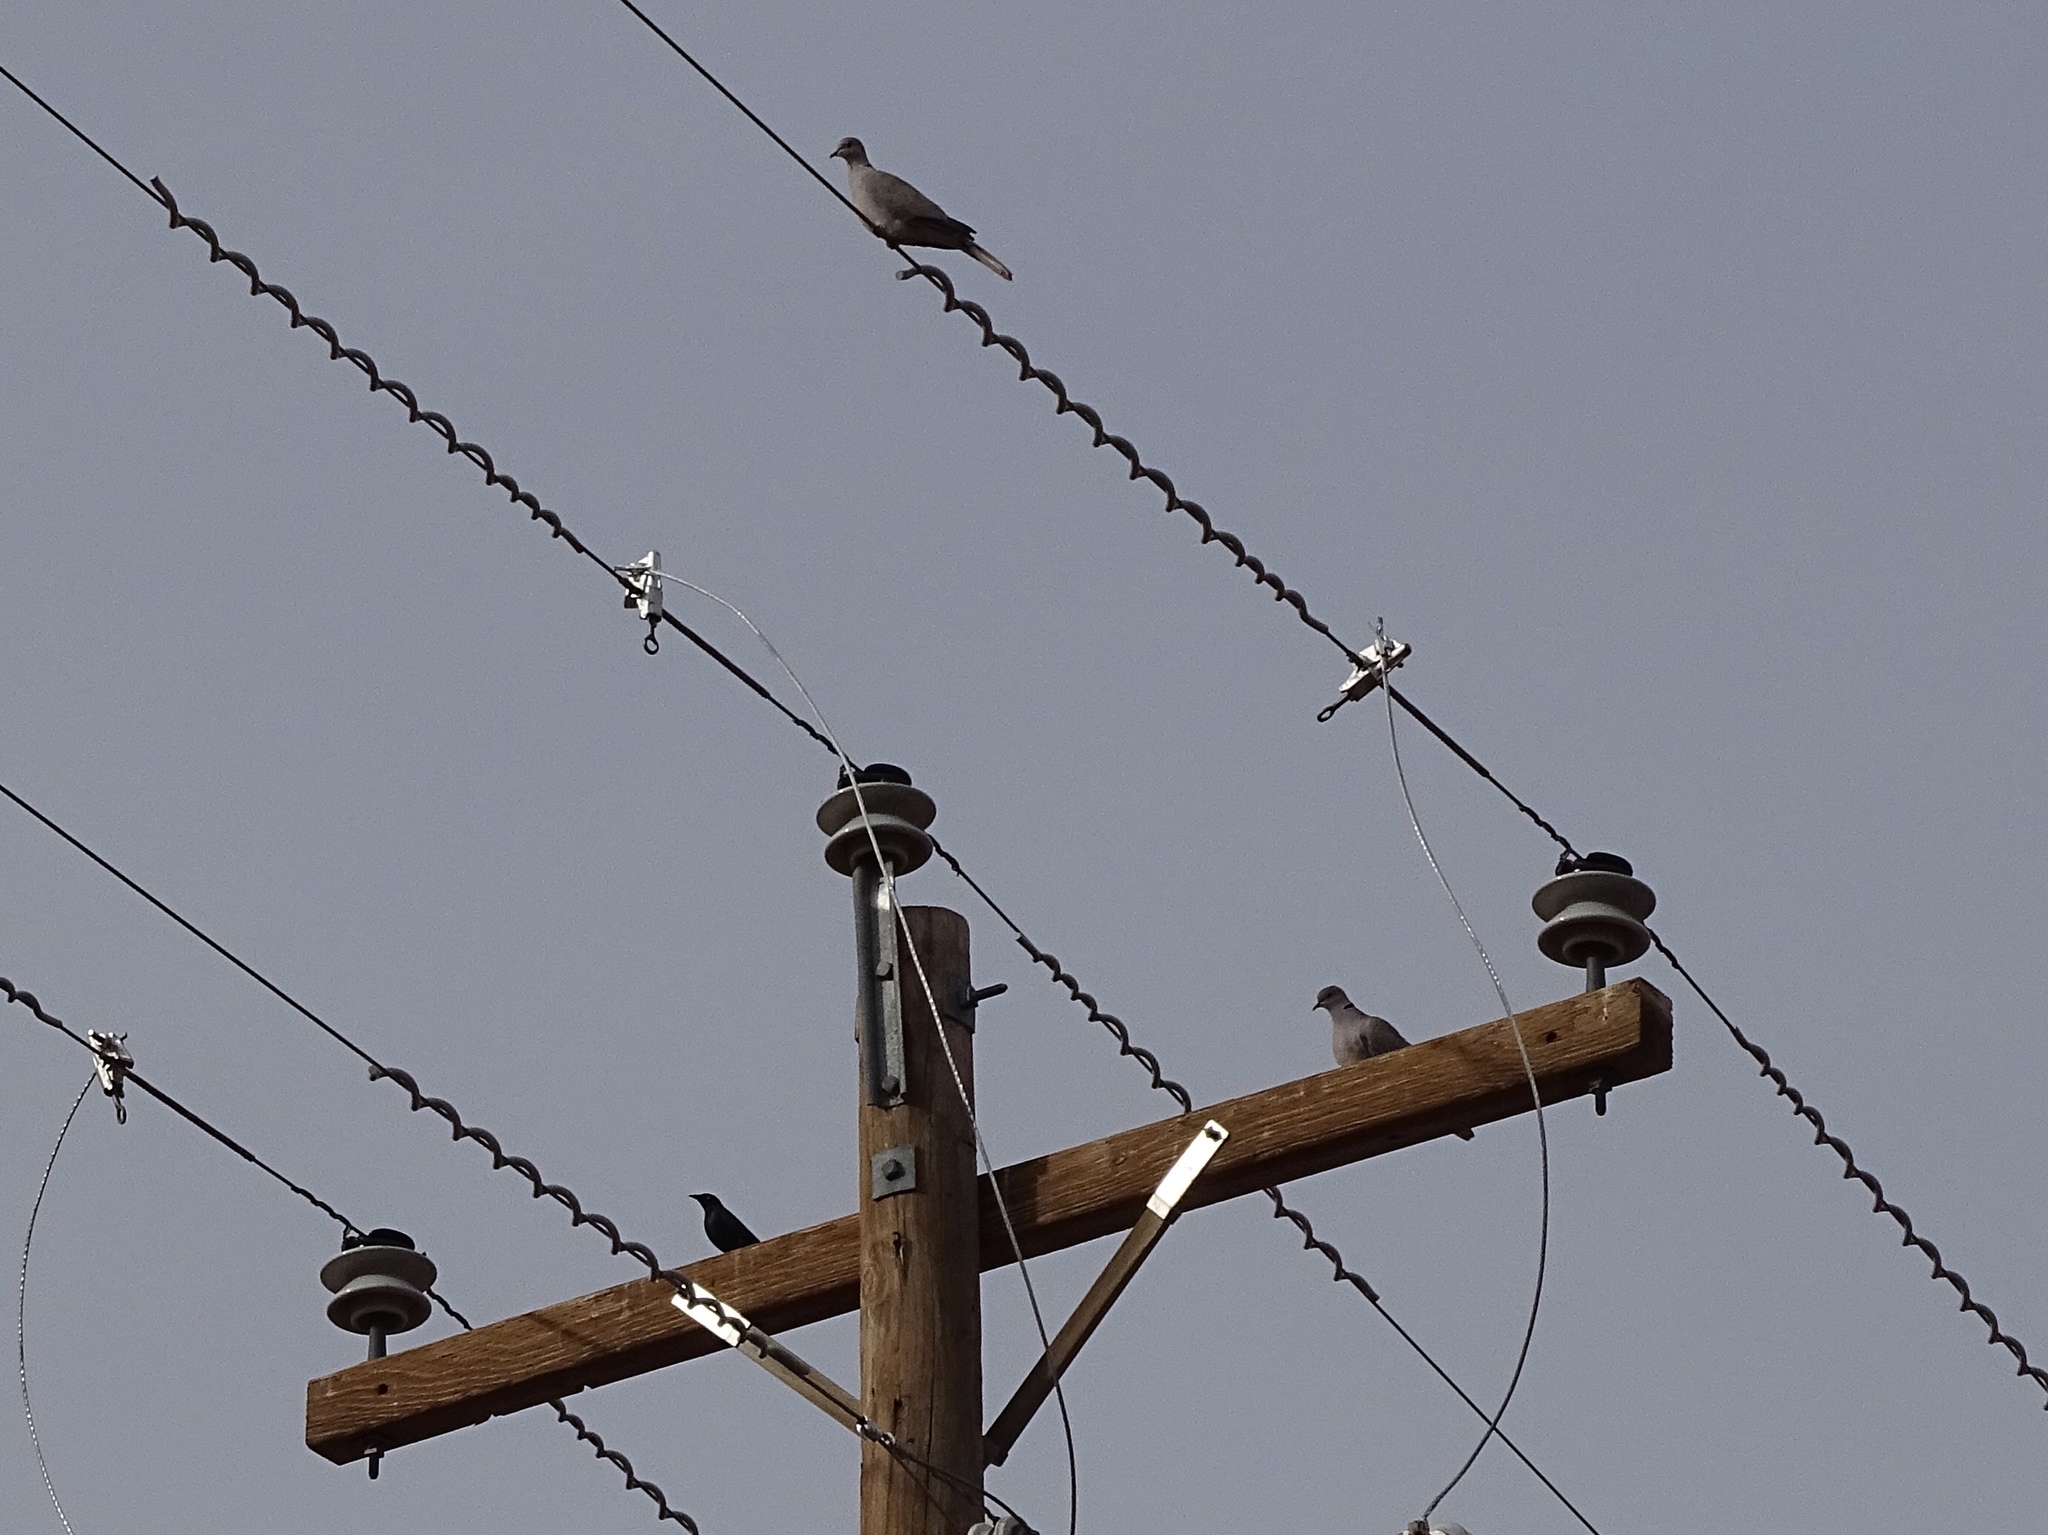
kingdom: Animalia
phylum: Chordata
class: Aves
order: Columbiformes
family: Columbidae
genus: Streptopelia
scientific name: Streptopelia decaocto
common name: Eurasian collared dove
